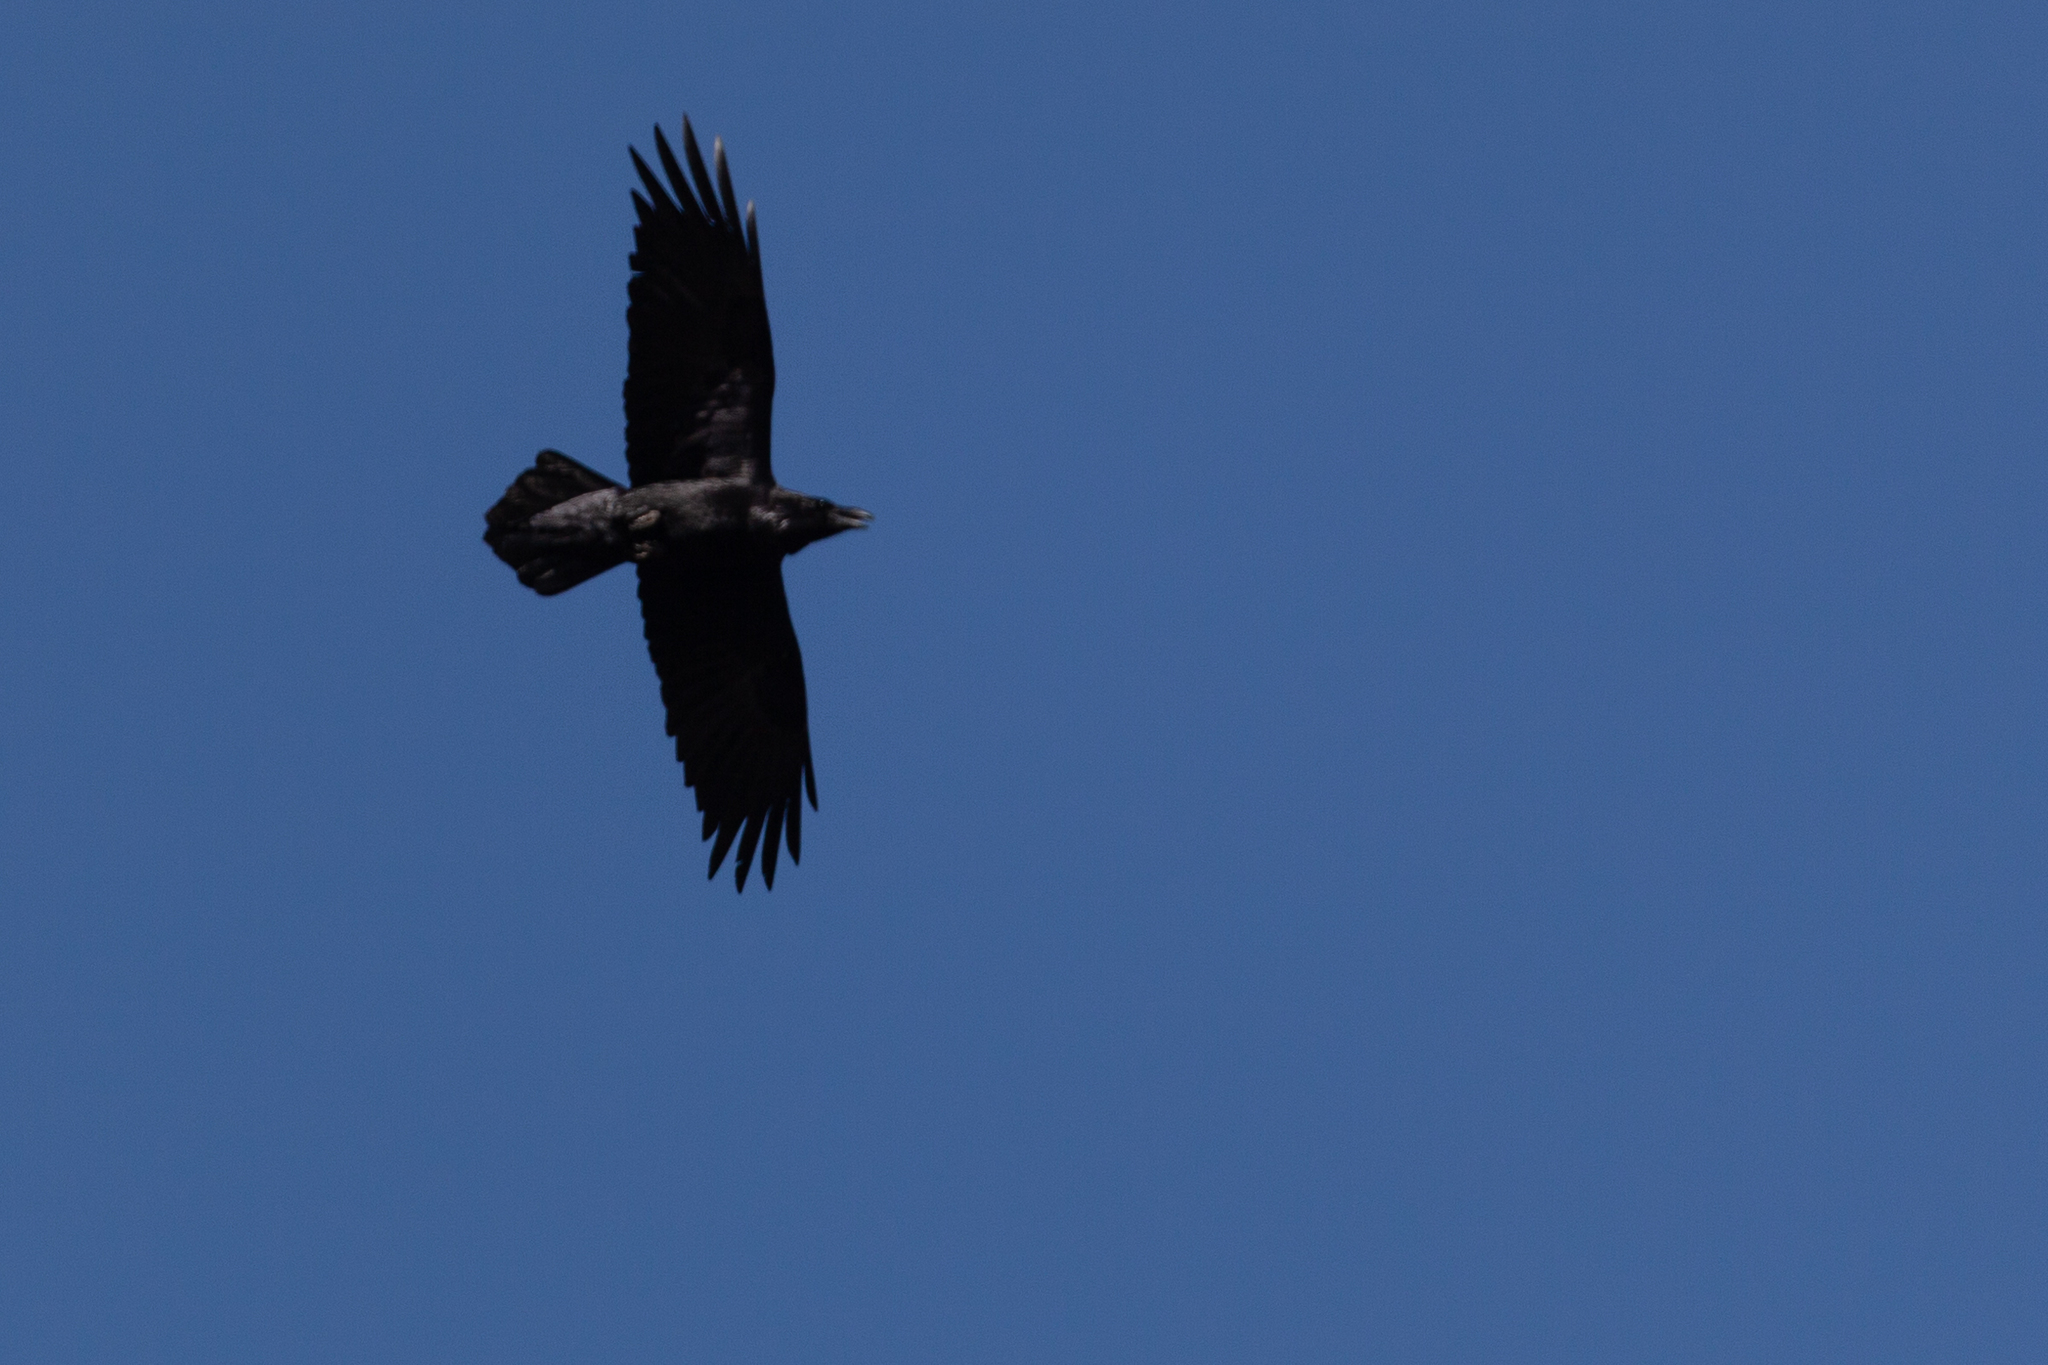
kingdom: Animalia
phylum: Chordata
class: Aves
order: Passeriformes
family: Corvidae
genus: Corvus
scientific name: Corvus corax
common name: Common raven
